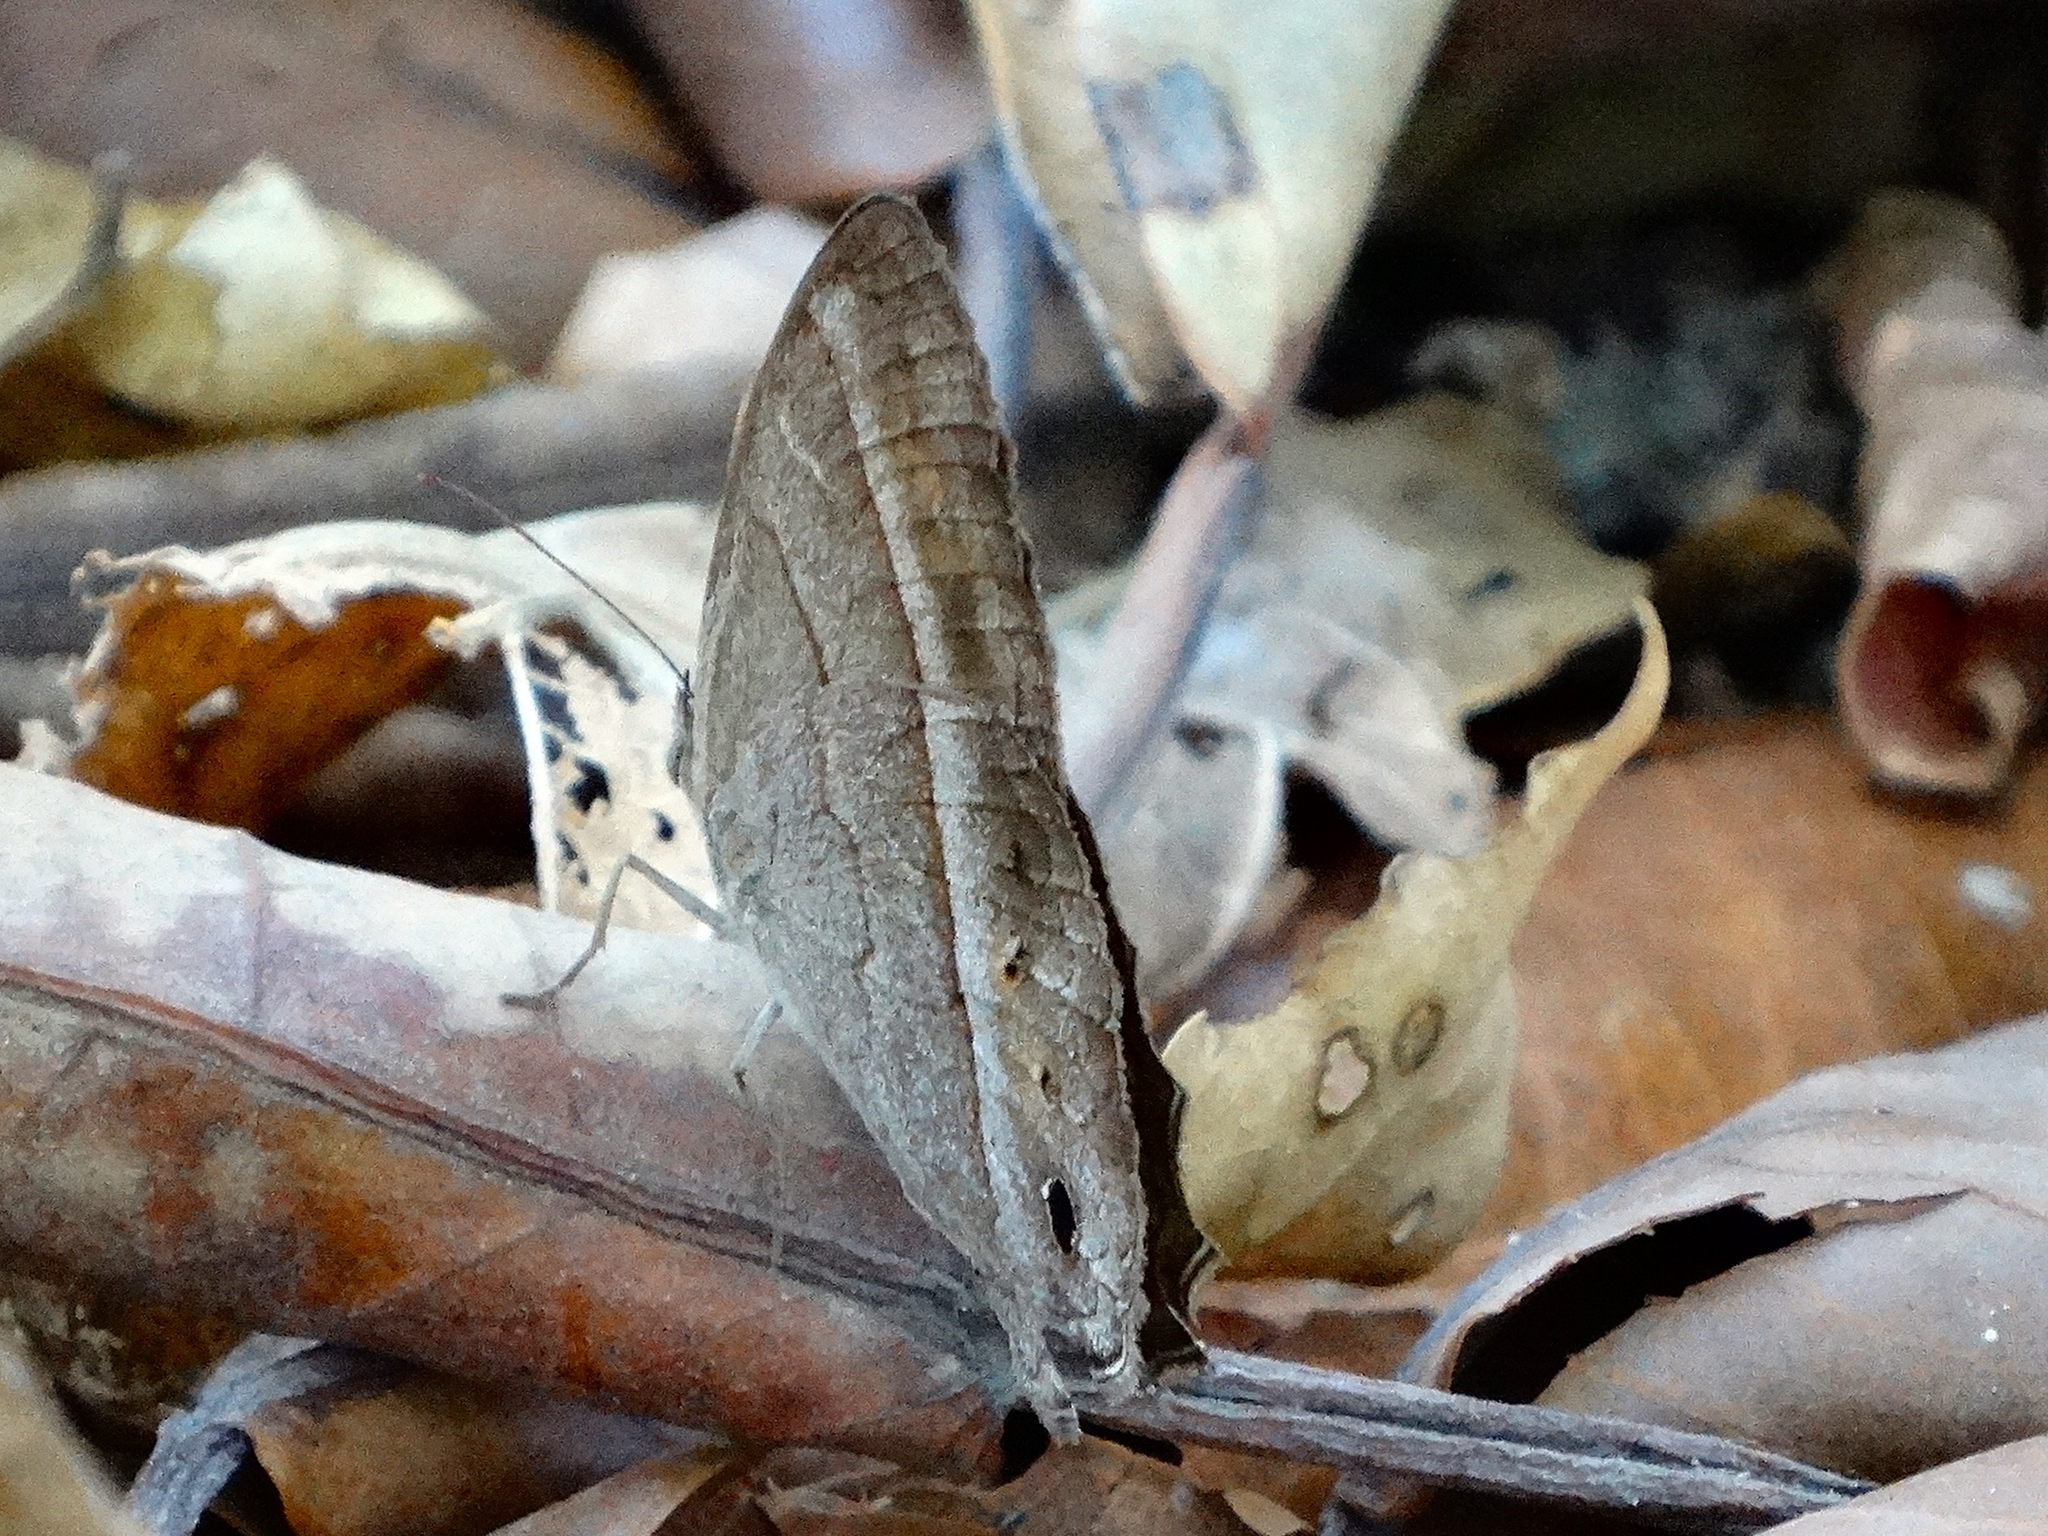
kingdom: Animalia
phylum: Arthropoda
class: Insecta
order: Lepidoptera
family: Nymphalidae
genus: Vareuptychia
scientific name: Vareuptychia similis
